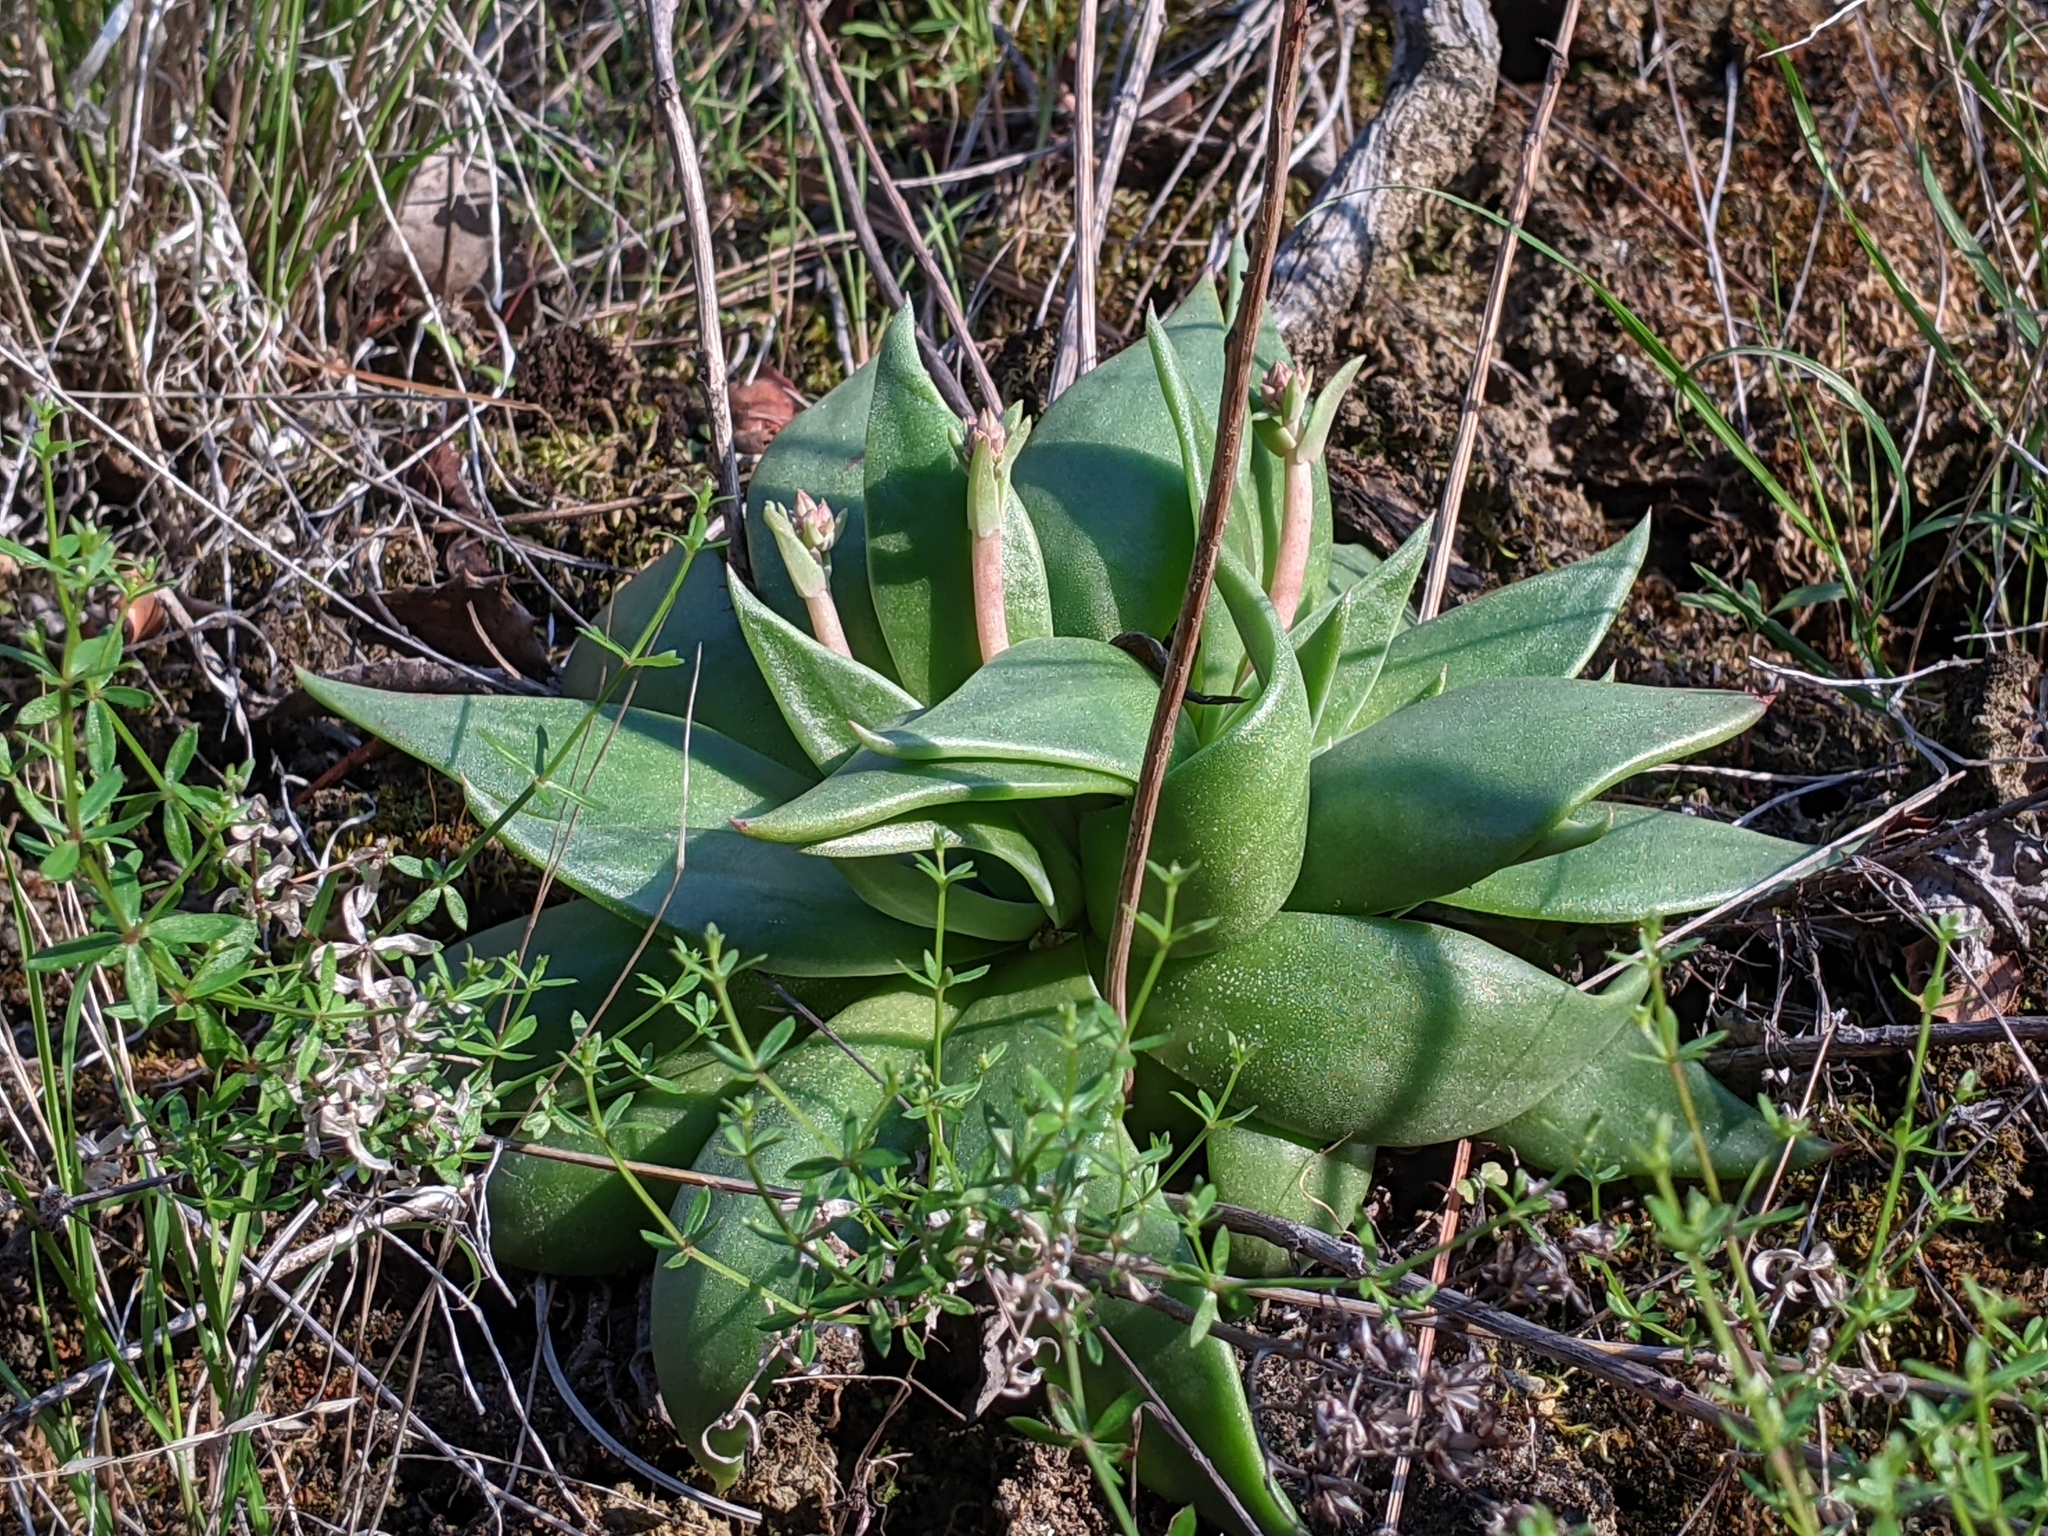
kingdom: Plantae
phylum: Tracheophyta
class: Magnoliopsida
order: Saxifragales
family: Crassulaceae
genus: Dudleya
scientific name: Dudleya cymosa
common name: Canyon dudleya
